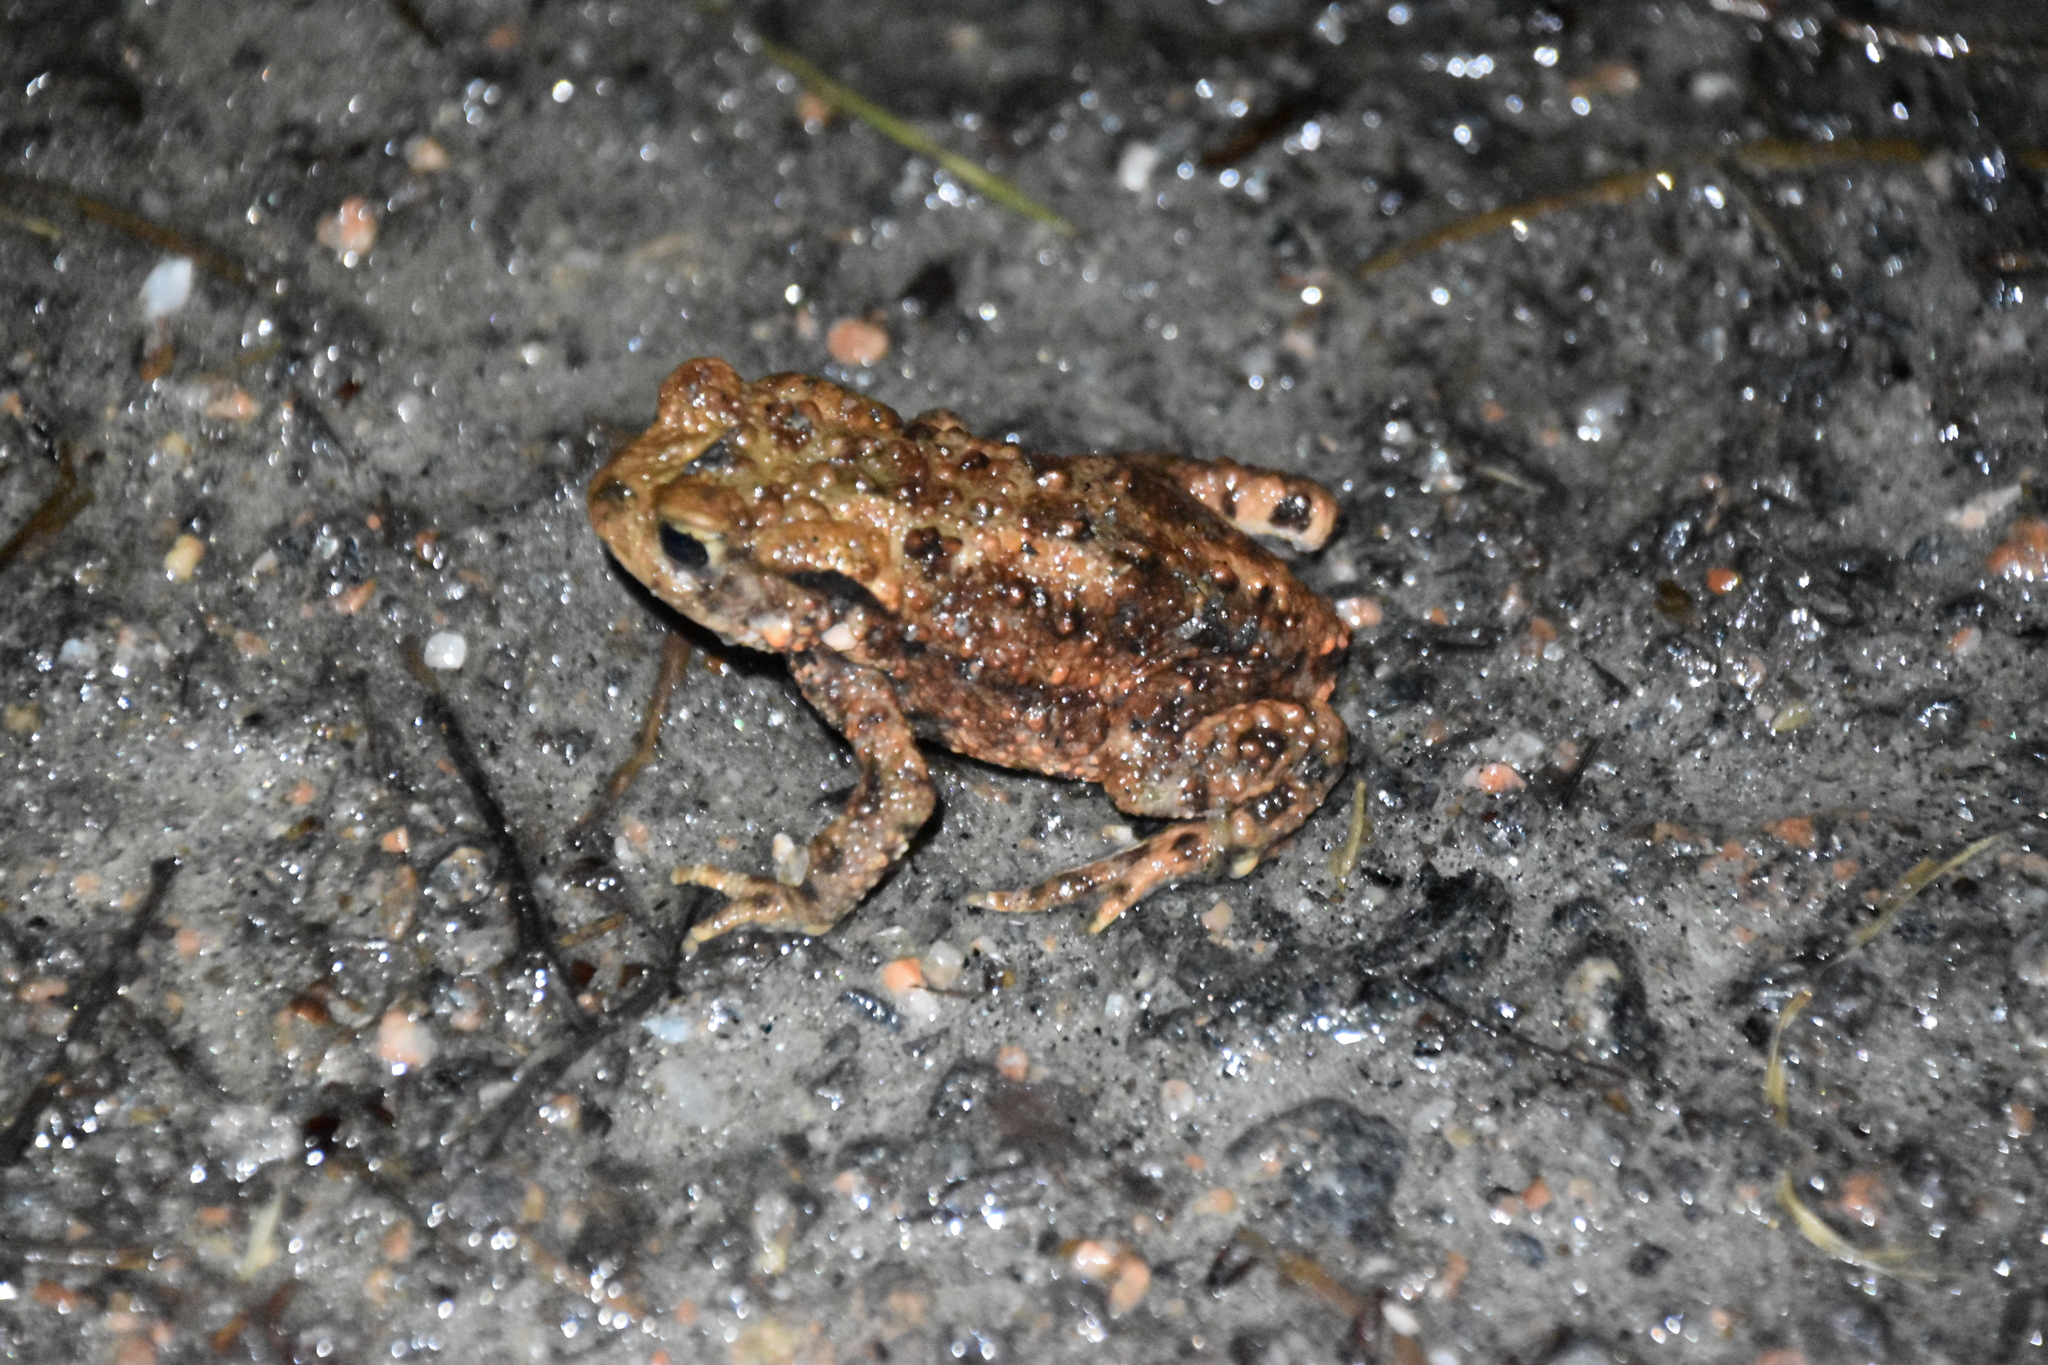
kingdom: Animalia
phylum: Chordata
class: Amphibia
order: Anura
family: Bufonidae
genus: Bufo
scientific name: Bufo bufo
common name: Common toad
